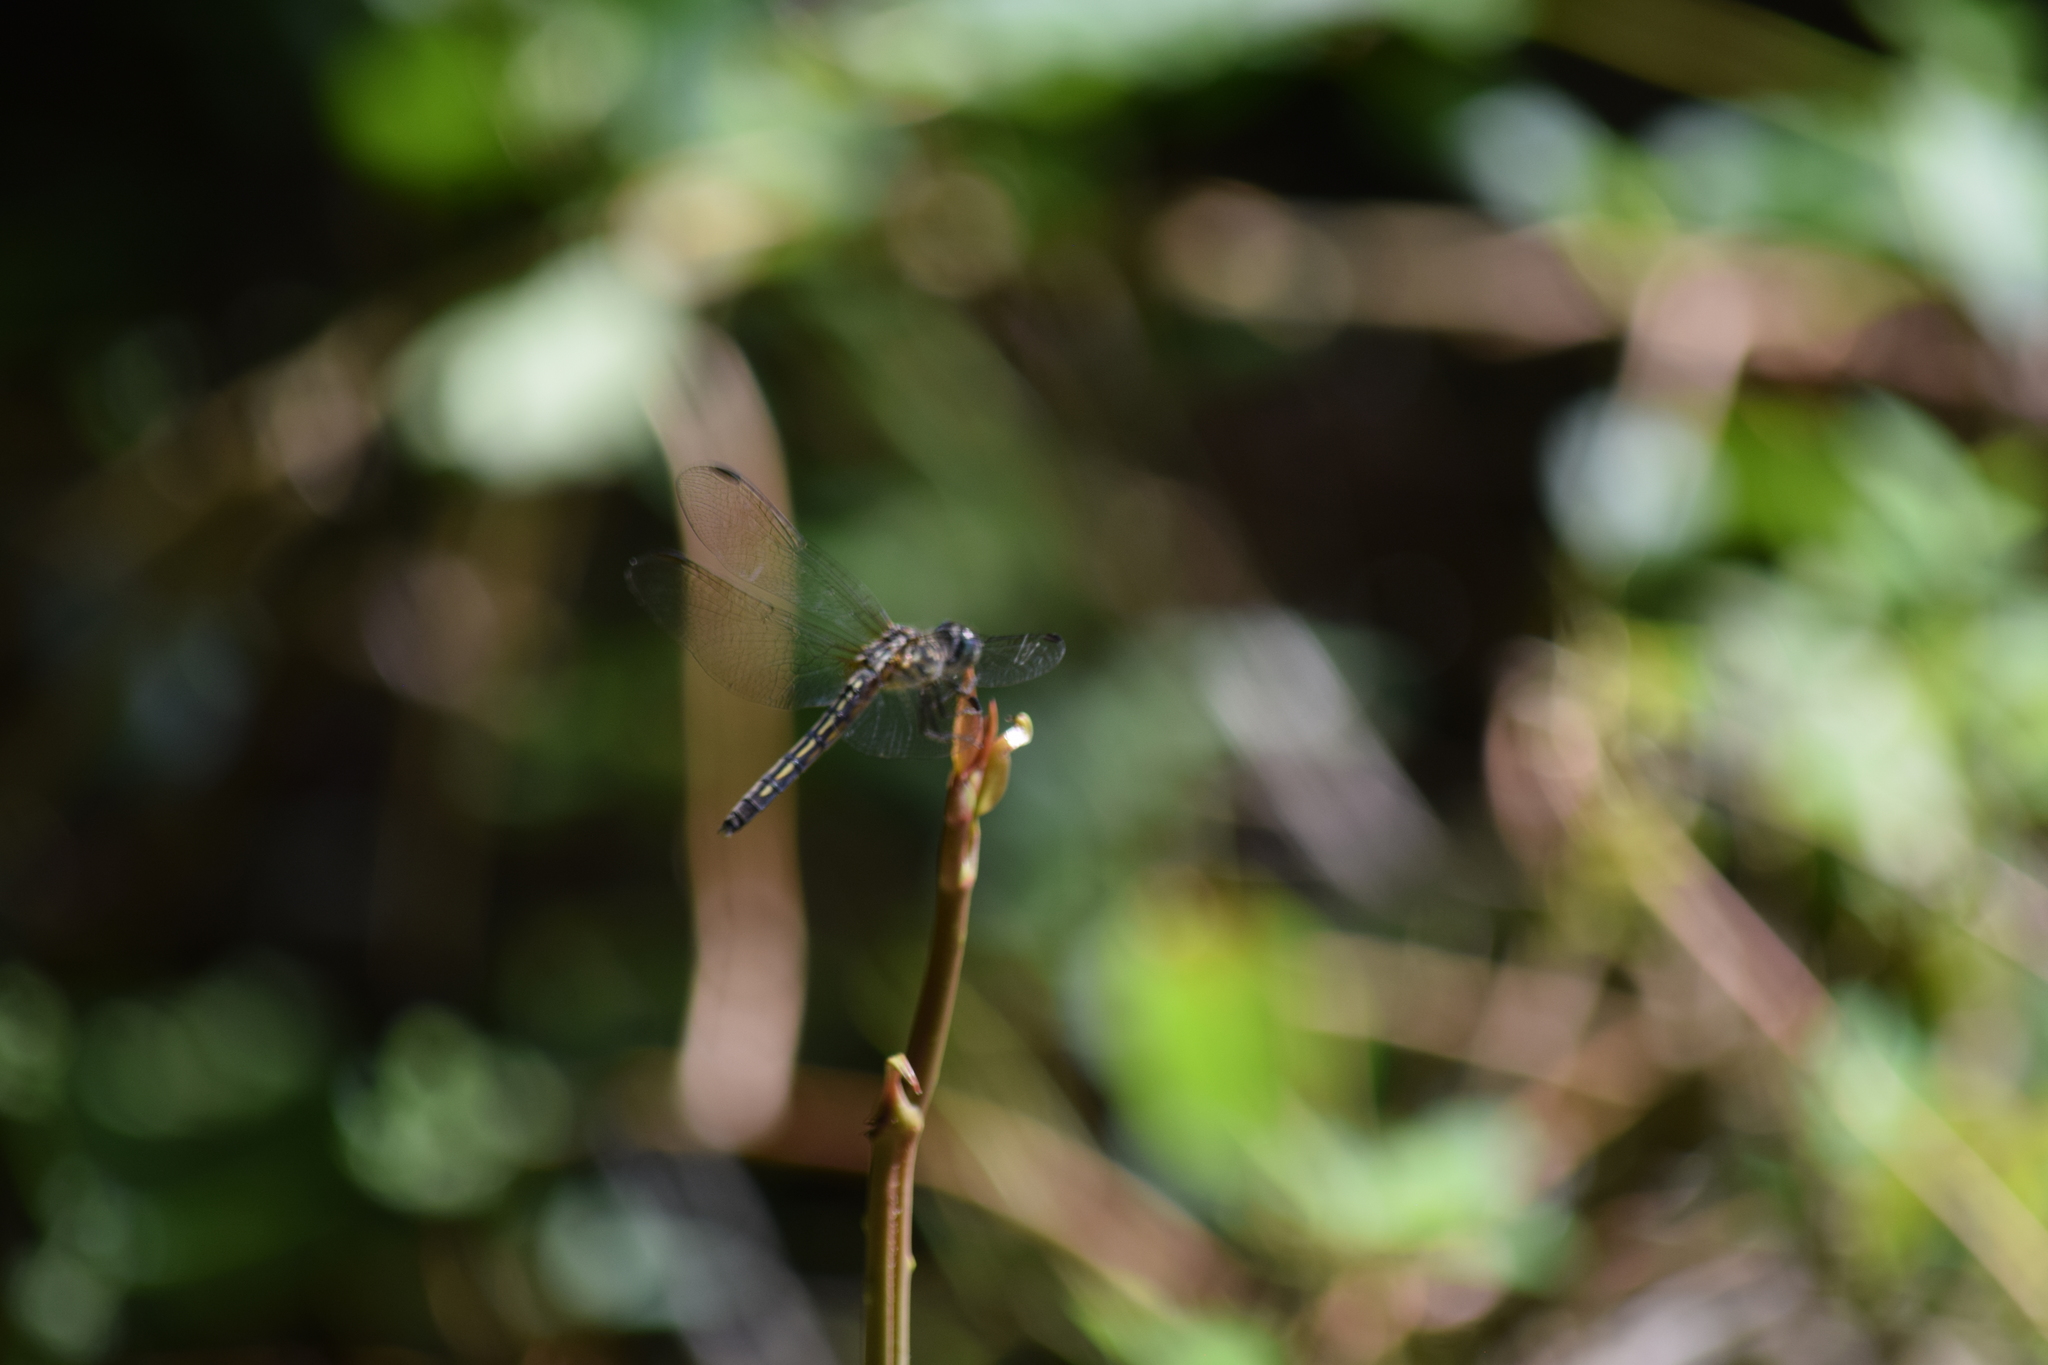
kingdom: Animalia
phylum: Arthropoda
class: Insecta
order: Odonata
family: Libellulidae
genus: Pachydiplax
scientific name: Pachydiplax longipennis
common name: Blue dasher
